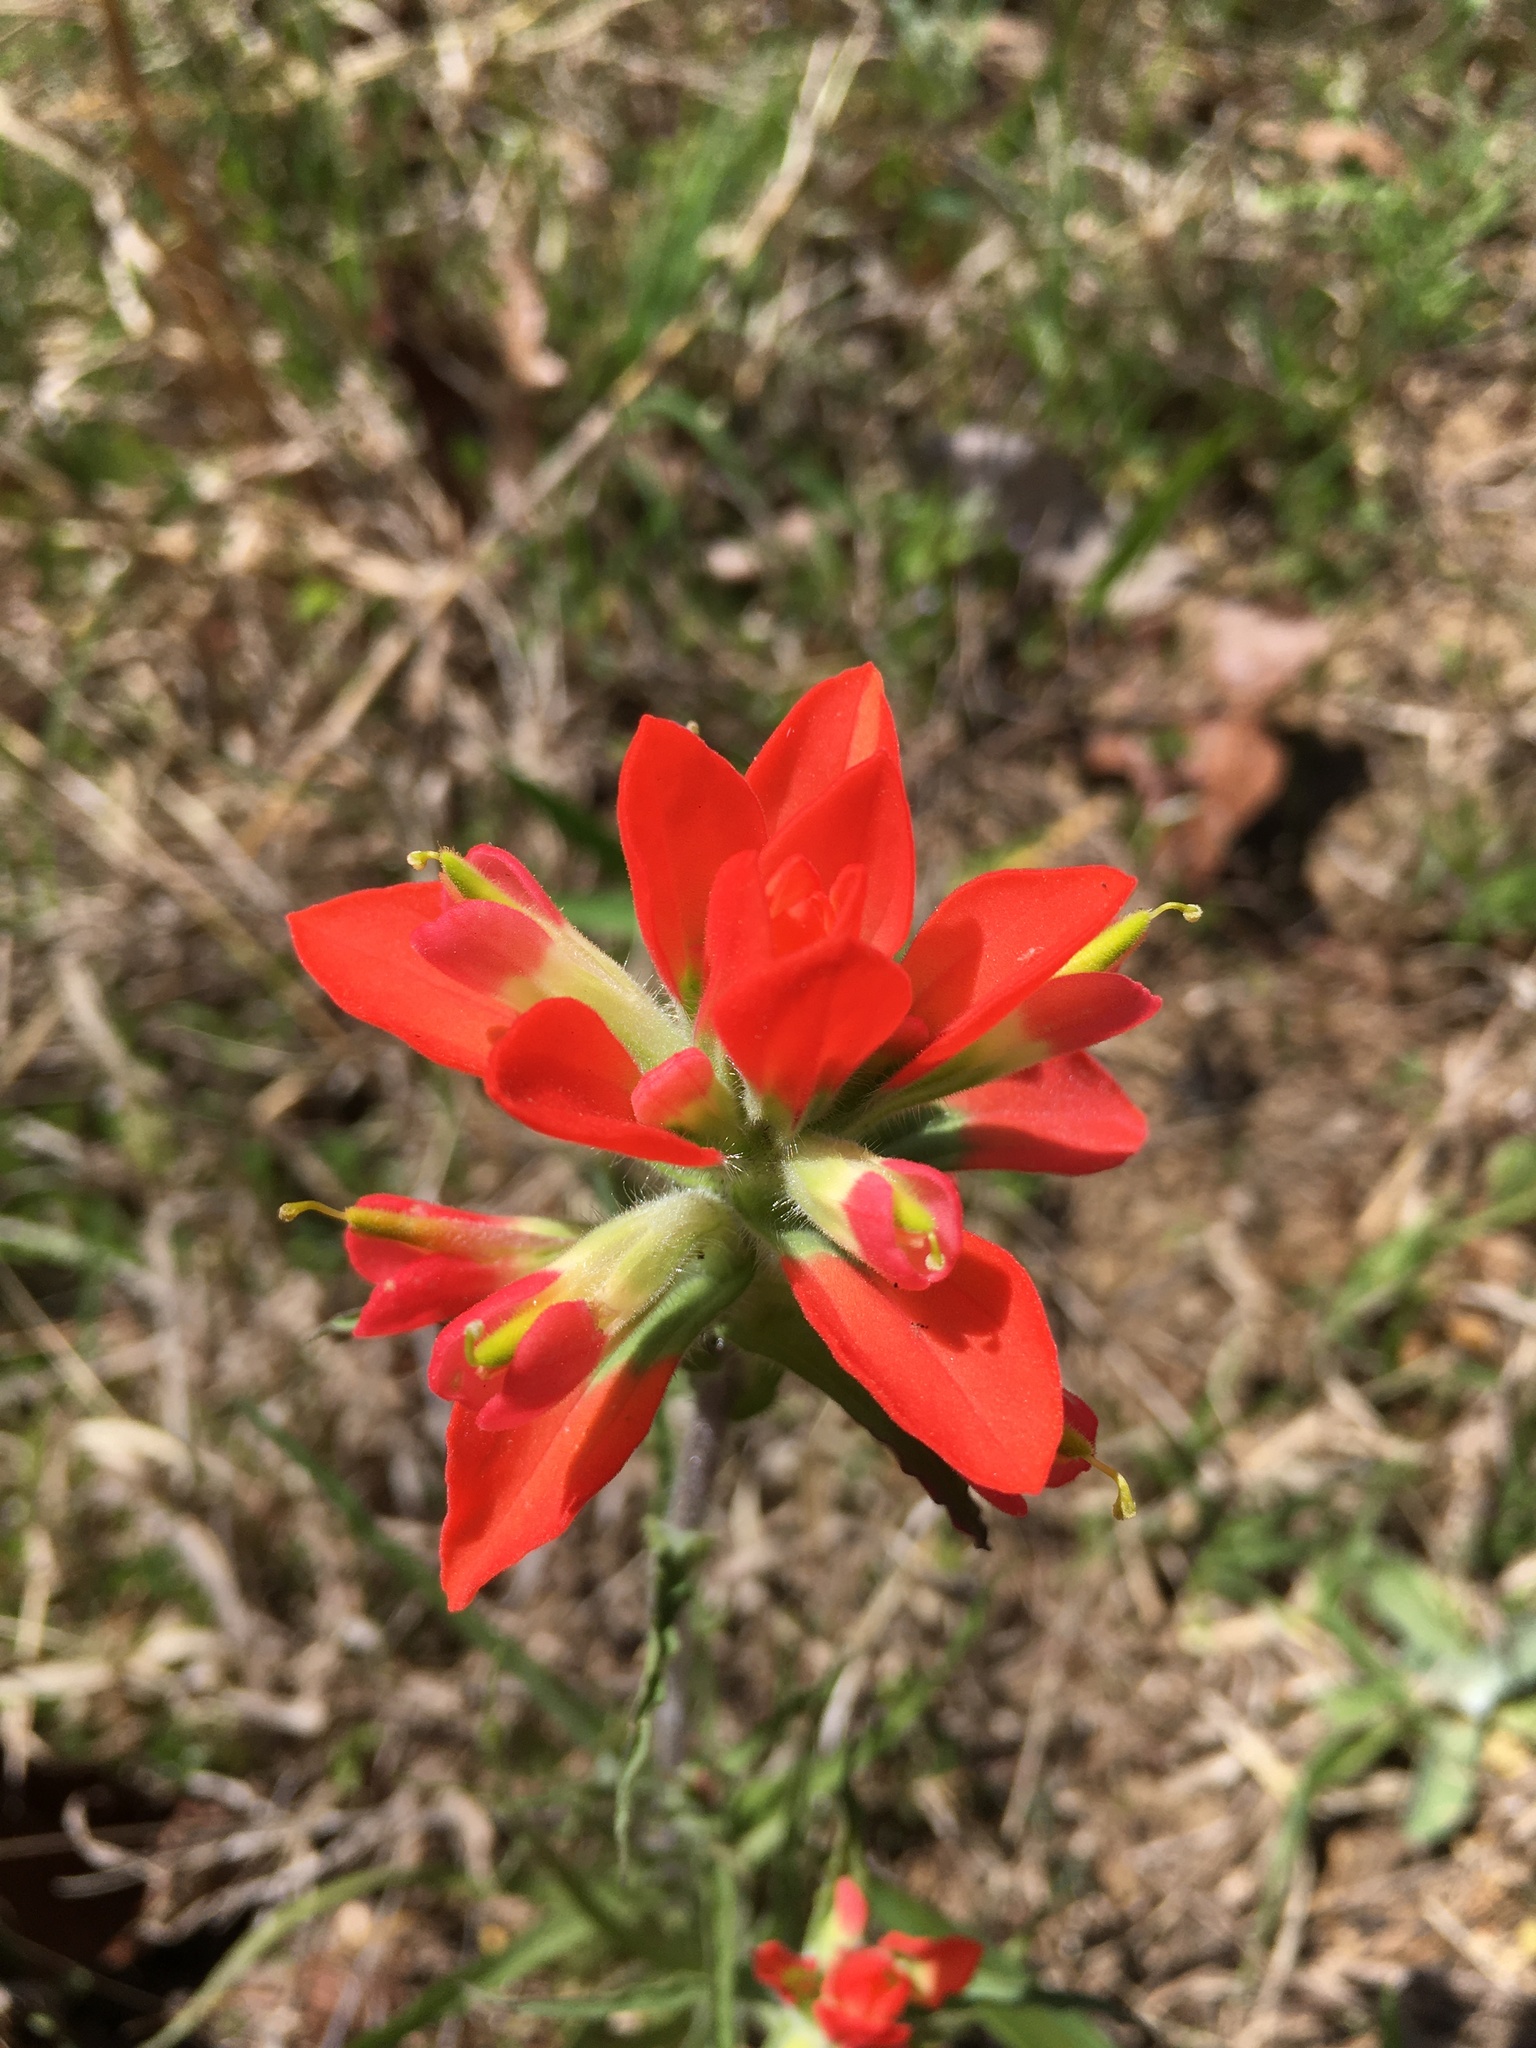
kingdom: Plantae
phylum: Tracheophyta
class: Magnoliopsida
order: Lamiales
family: Orobanchaceae
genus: Castilleja
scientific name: Castilleja indivisa
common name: Texas paintbrush
